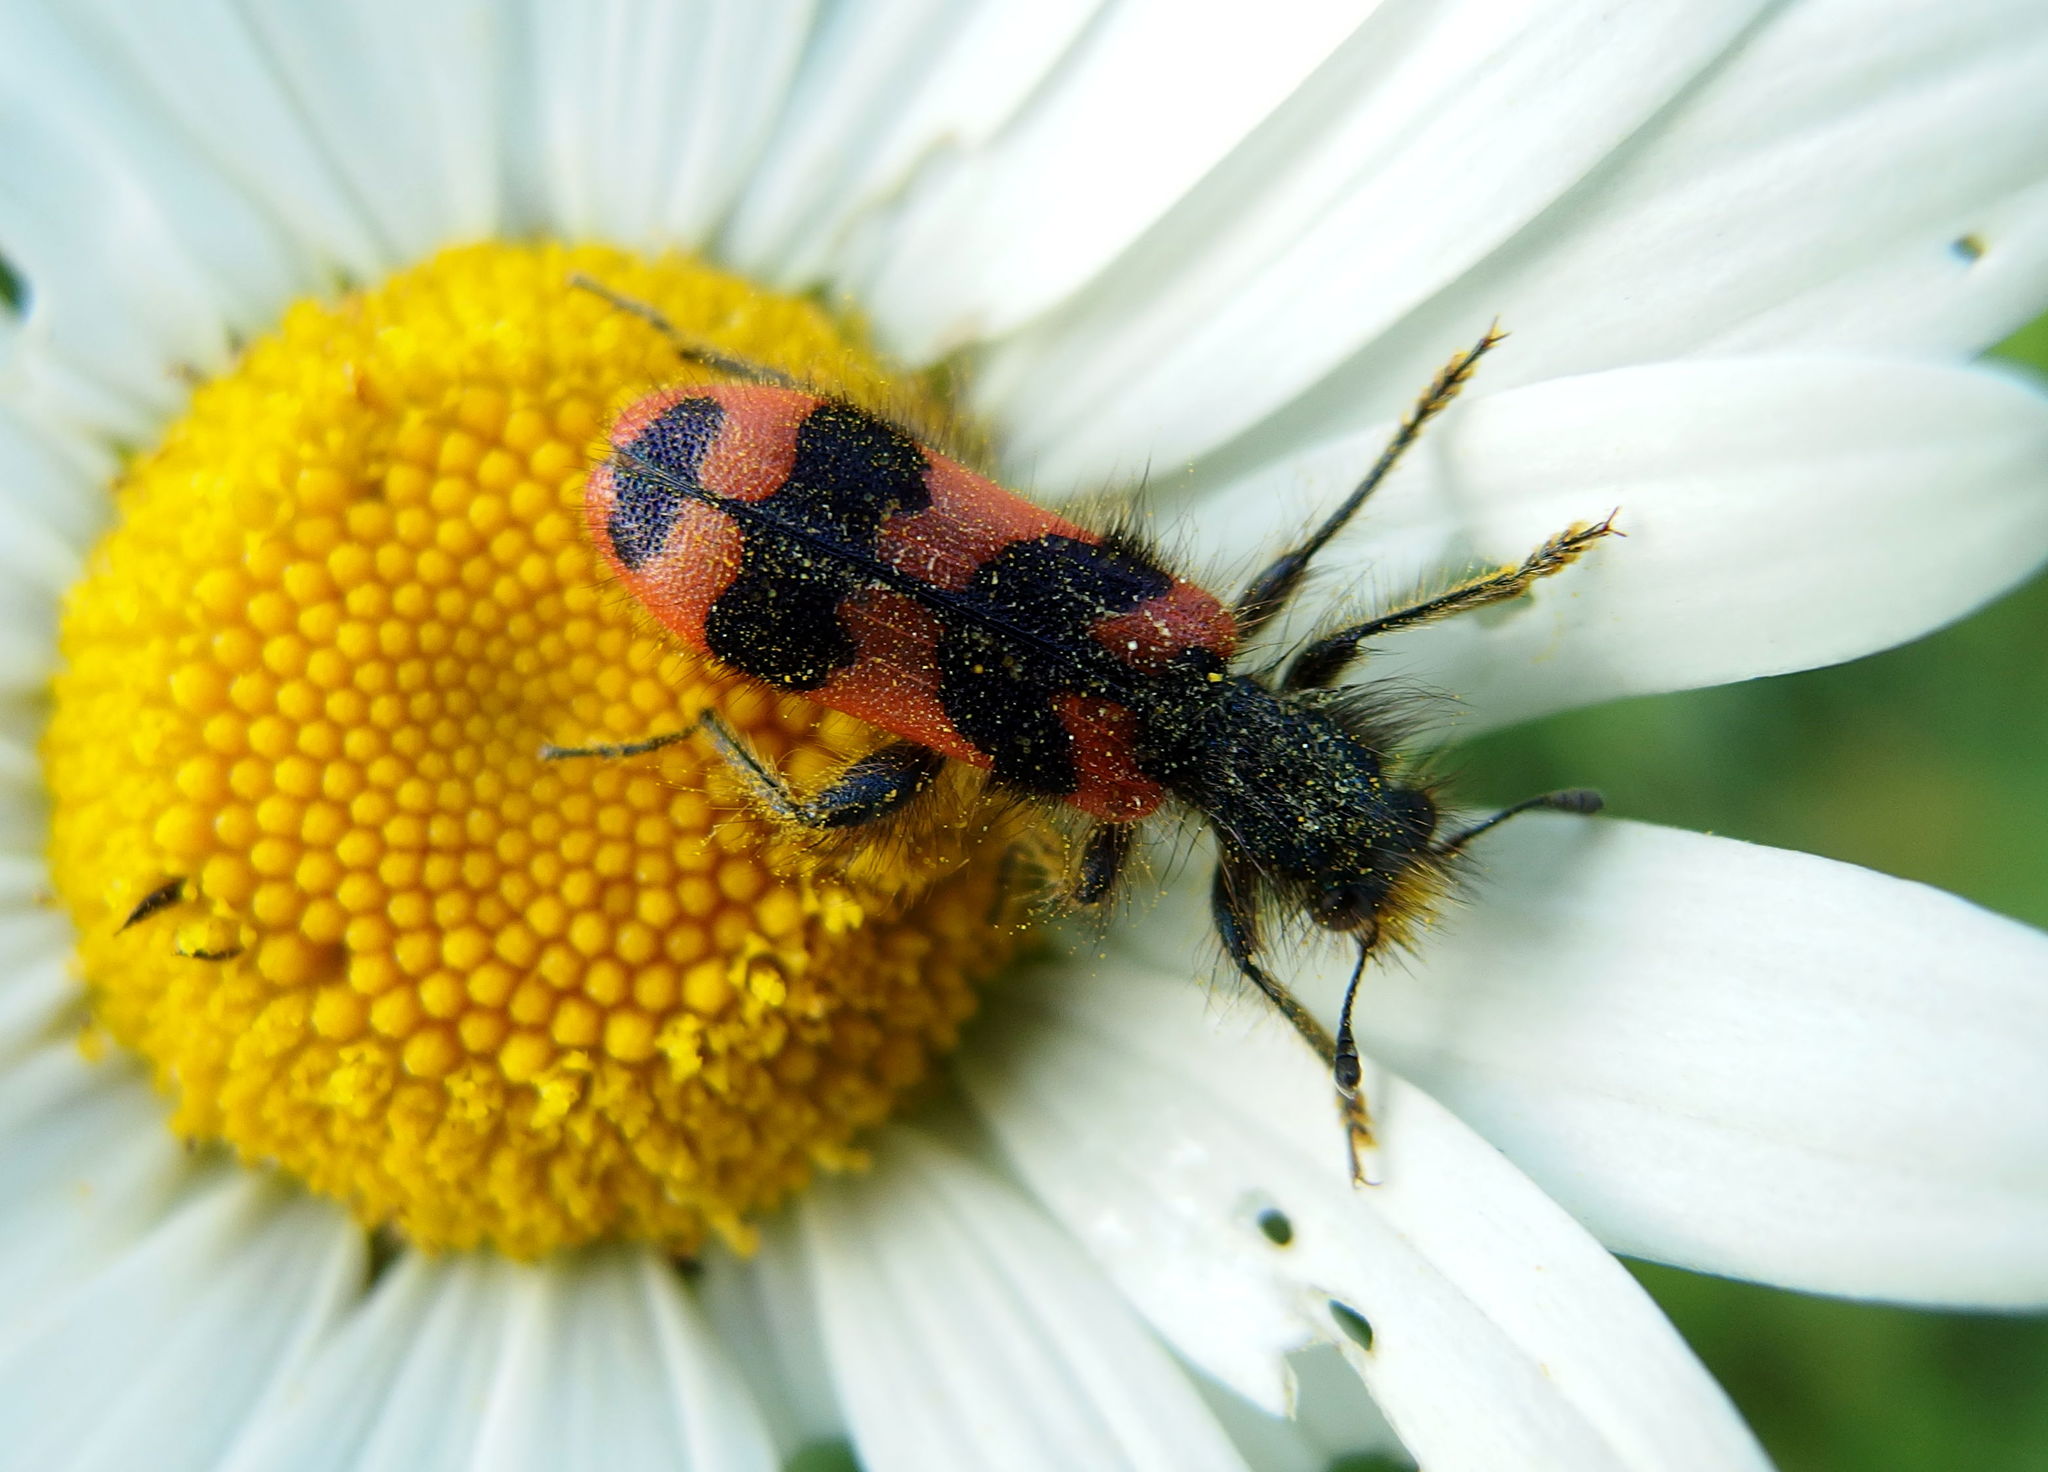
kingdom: Animalia
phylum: Arthropoda
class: Insecta
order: Coleoptera
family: Cleridae
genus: Trichodes
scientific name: Trichodes alvearius
